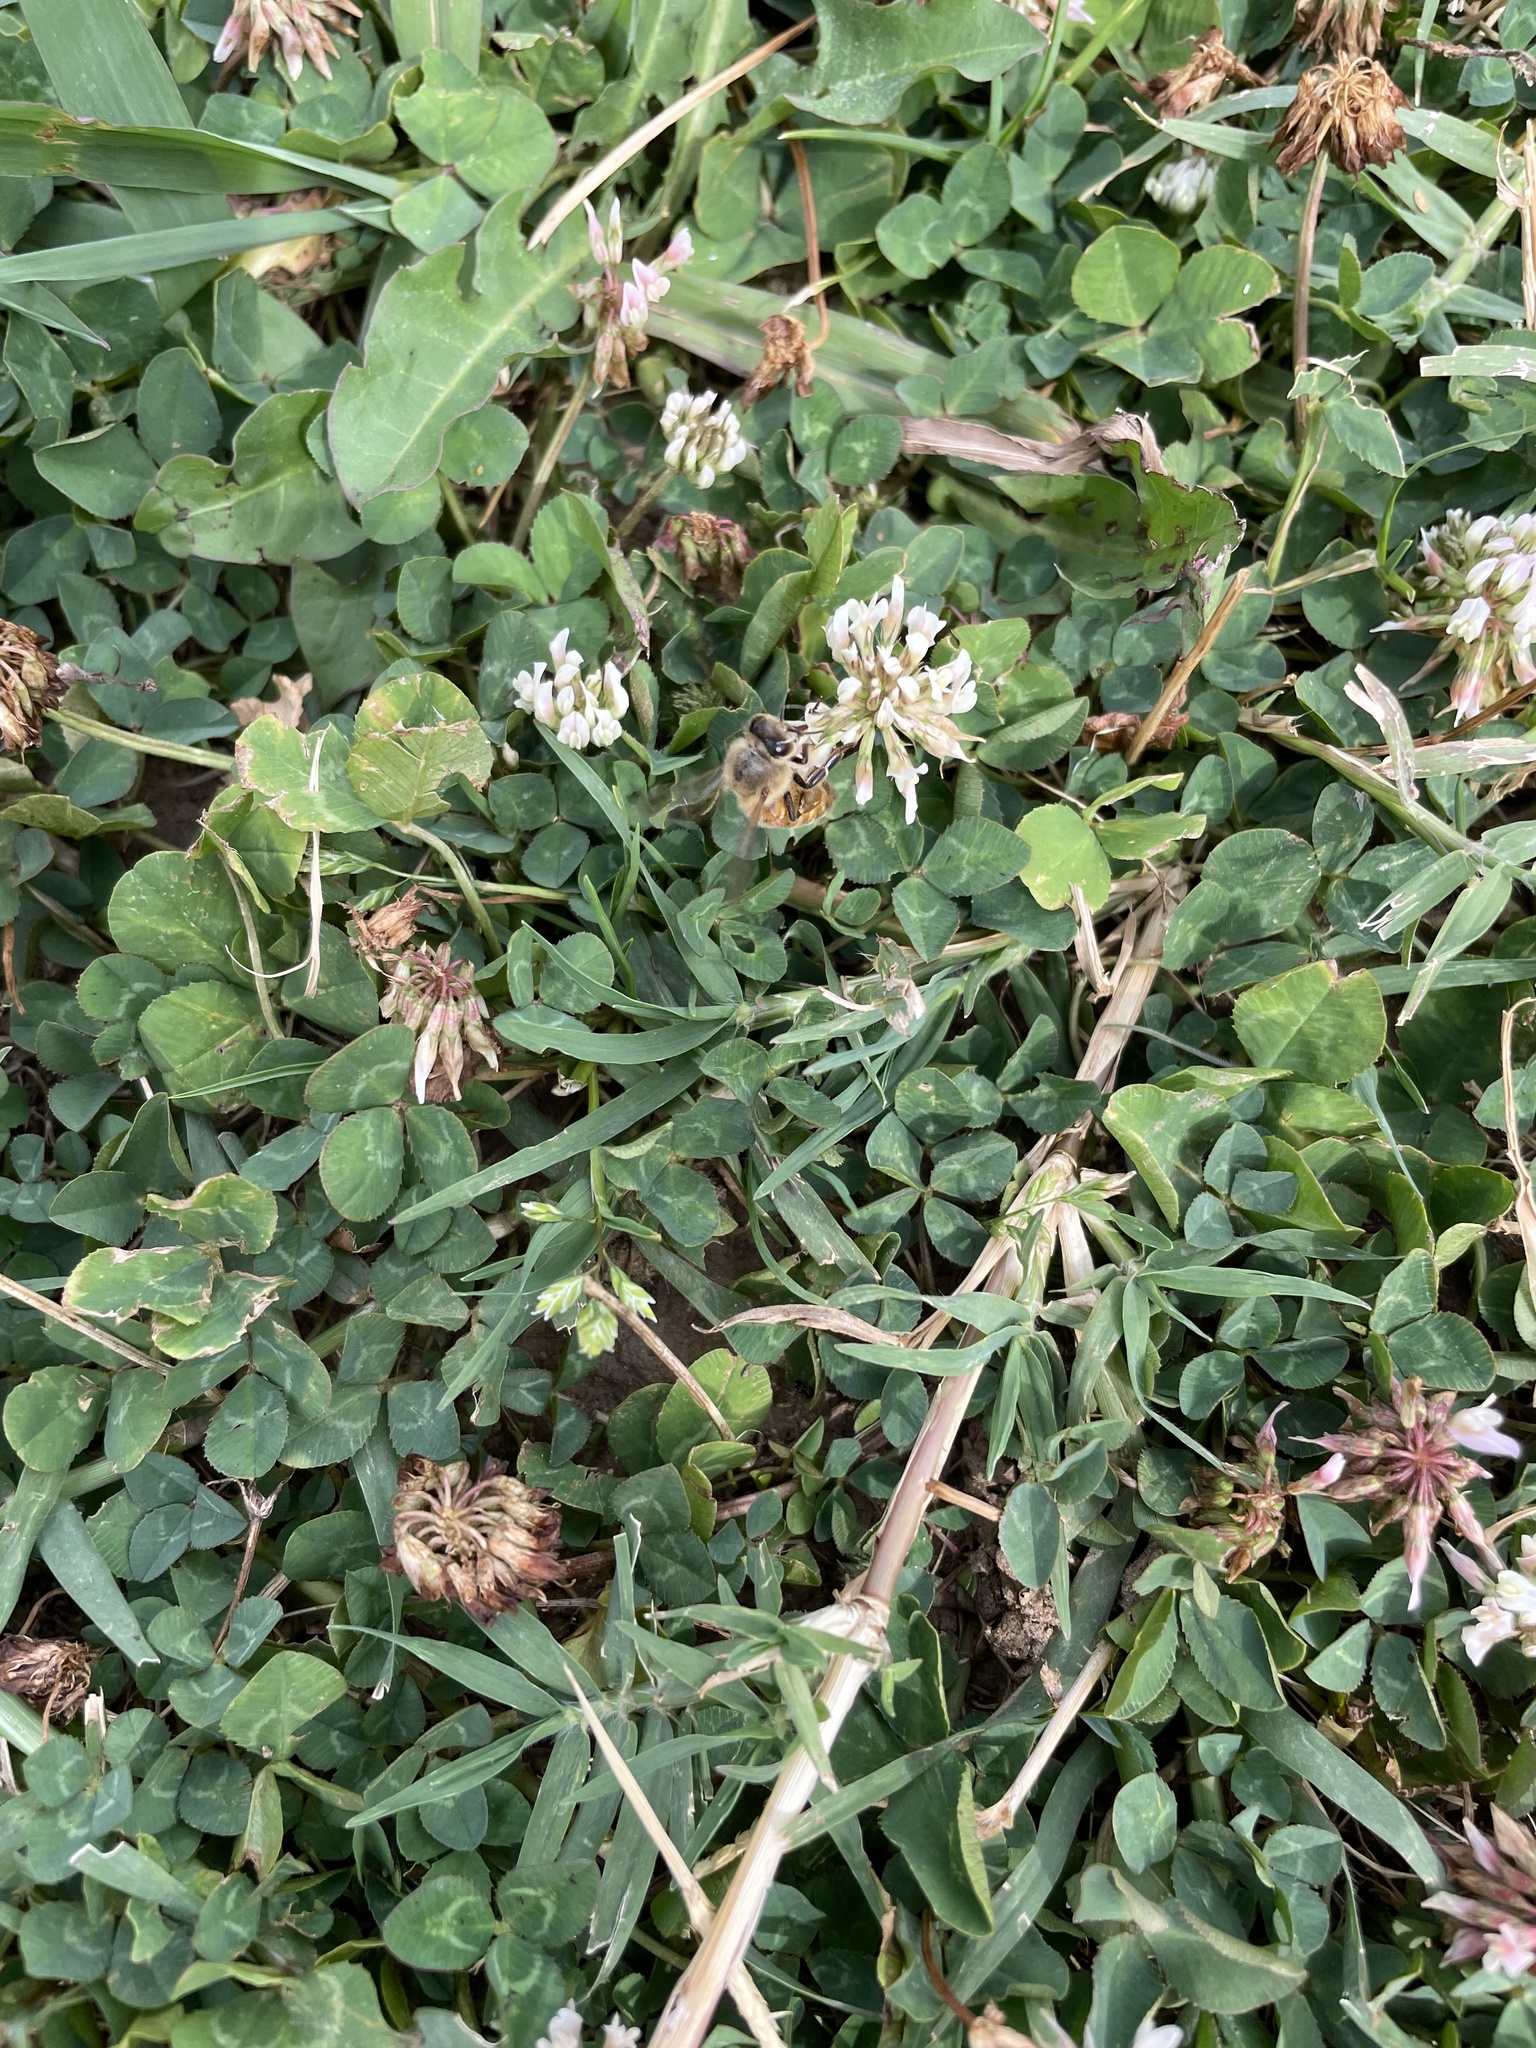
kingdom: Plantae
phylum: Tracheophyta
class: Magnoliopsida
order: Fabales
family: Fabaceae
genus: Trifolium
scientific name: Trifolium repens
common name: White clover
